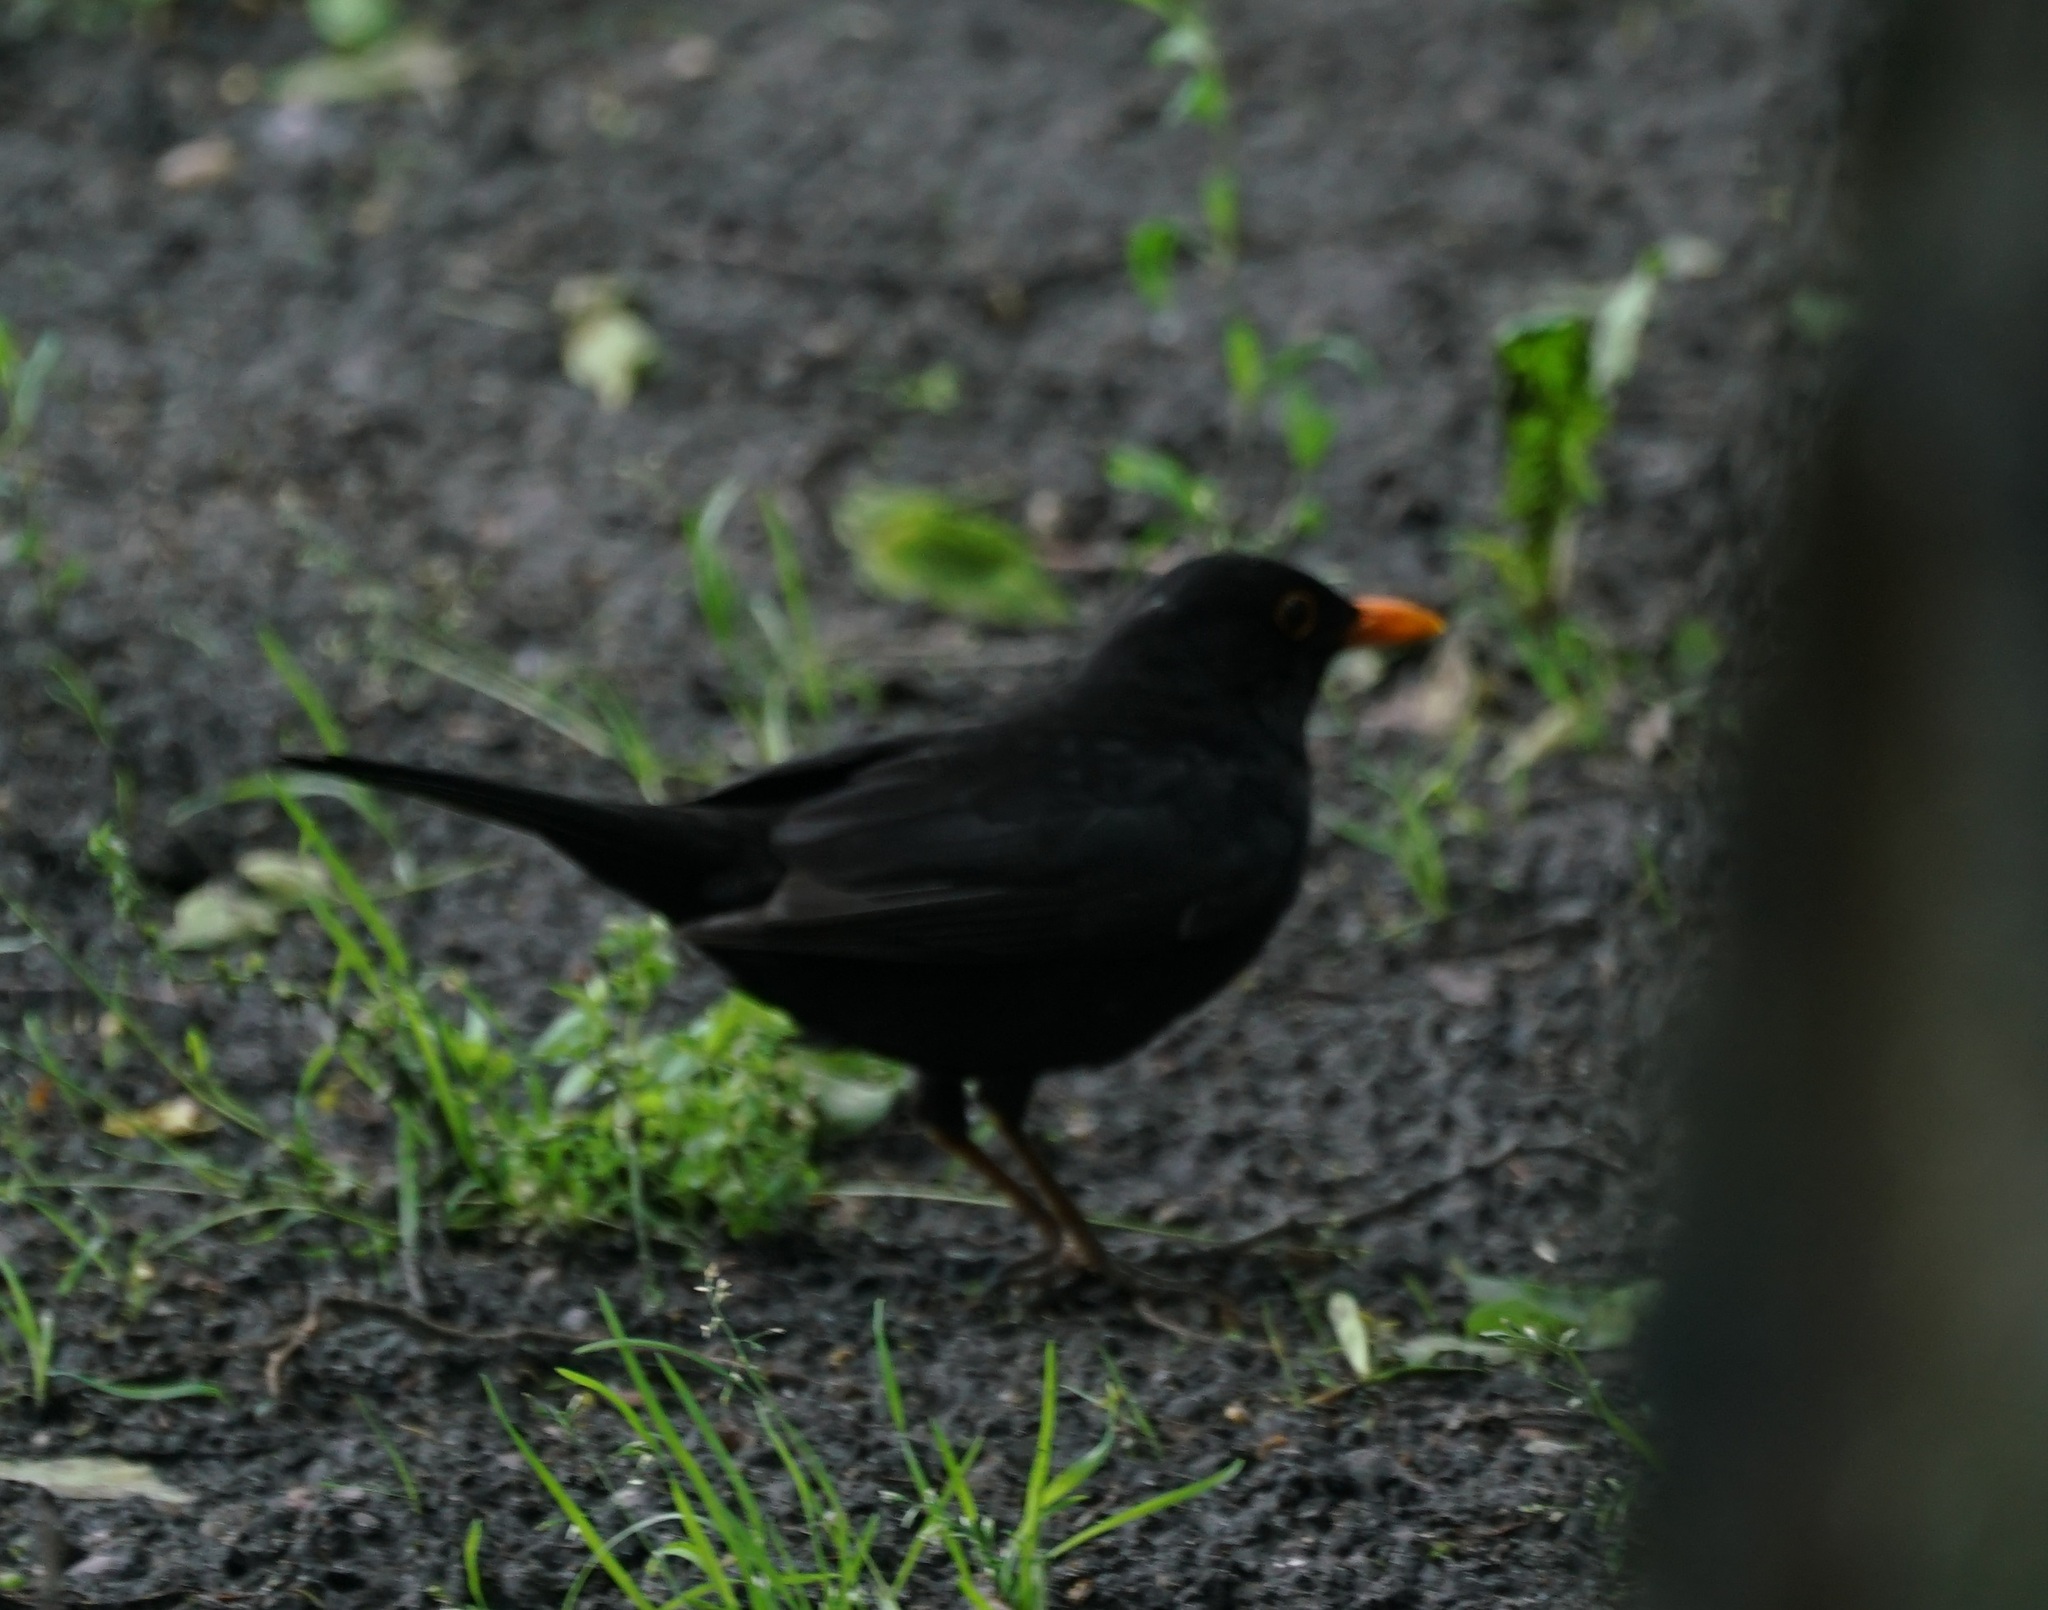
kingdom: Animalia
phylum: Chordata
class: Aves
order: Passeriformes
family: Turdidae
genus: Turdus
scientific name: Turdus merula
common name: Common blackbird
